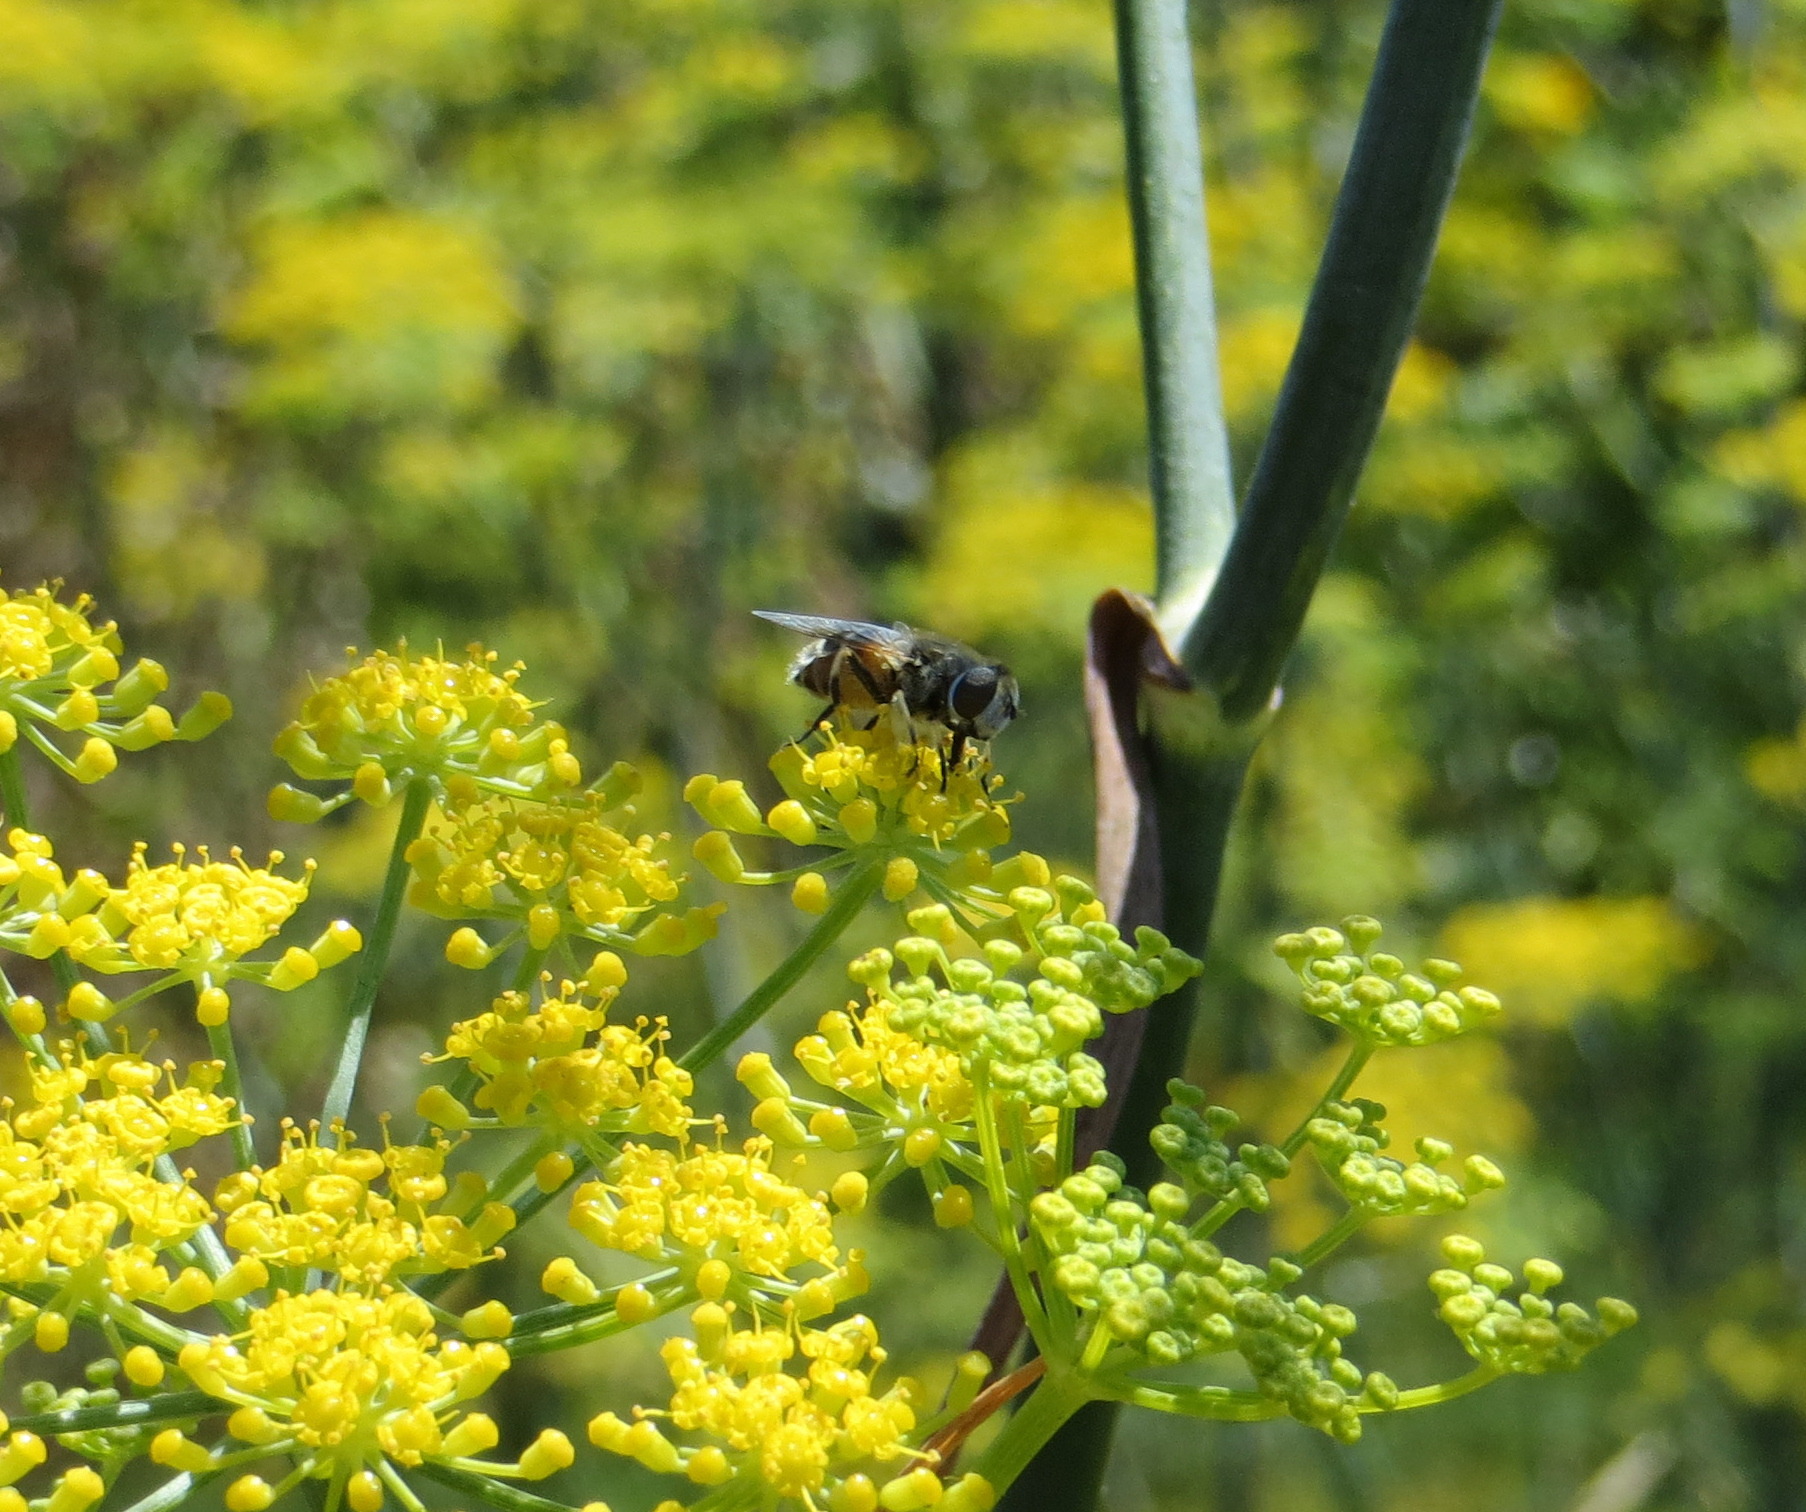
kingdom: Animalia
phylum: Arthropoda
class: Insecta
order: Diptera
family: Syrphidae
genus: Eristalis
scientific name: Eristalis arbustorum
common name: Hover fly
